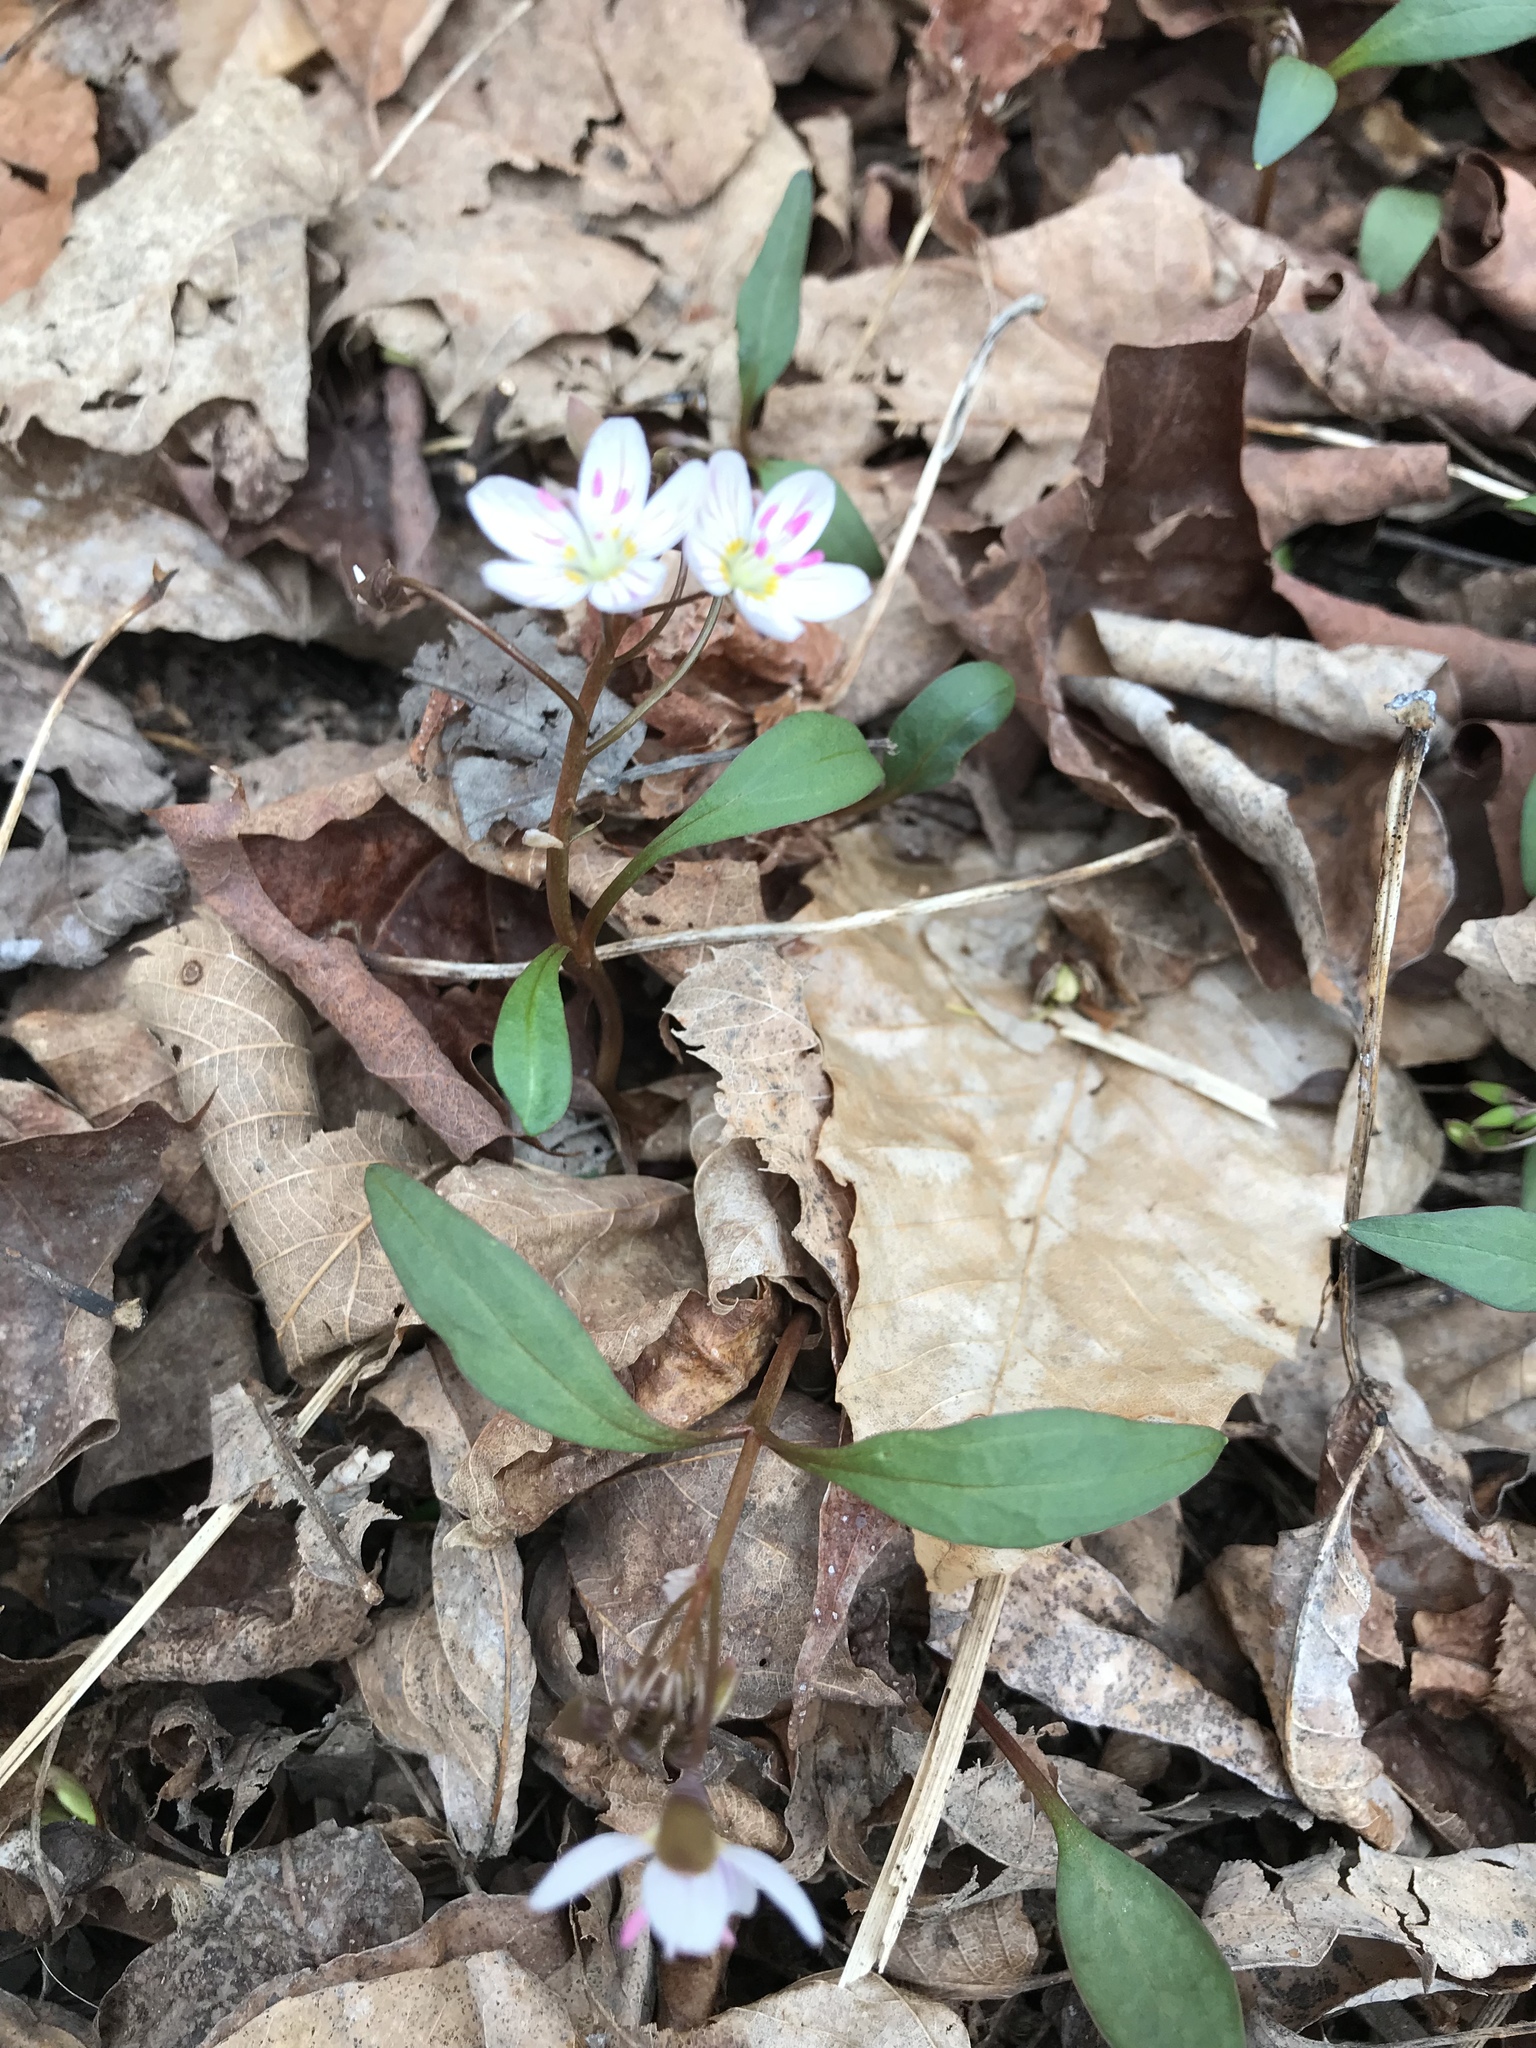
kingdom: Plantae
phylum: Tracheophyta
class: Magnoliopsida
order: Caryophyllales
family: Montiaceae
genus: Claytonia
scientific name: Claytonia caroliniana
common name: Carolina spring beauty
